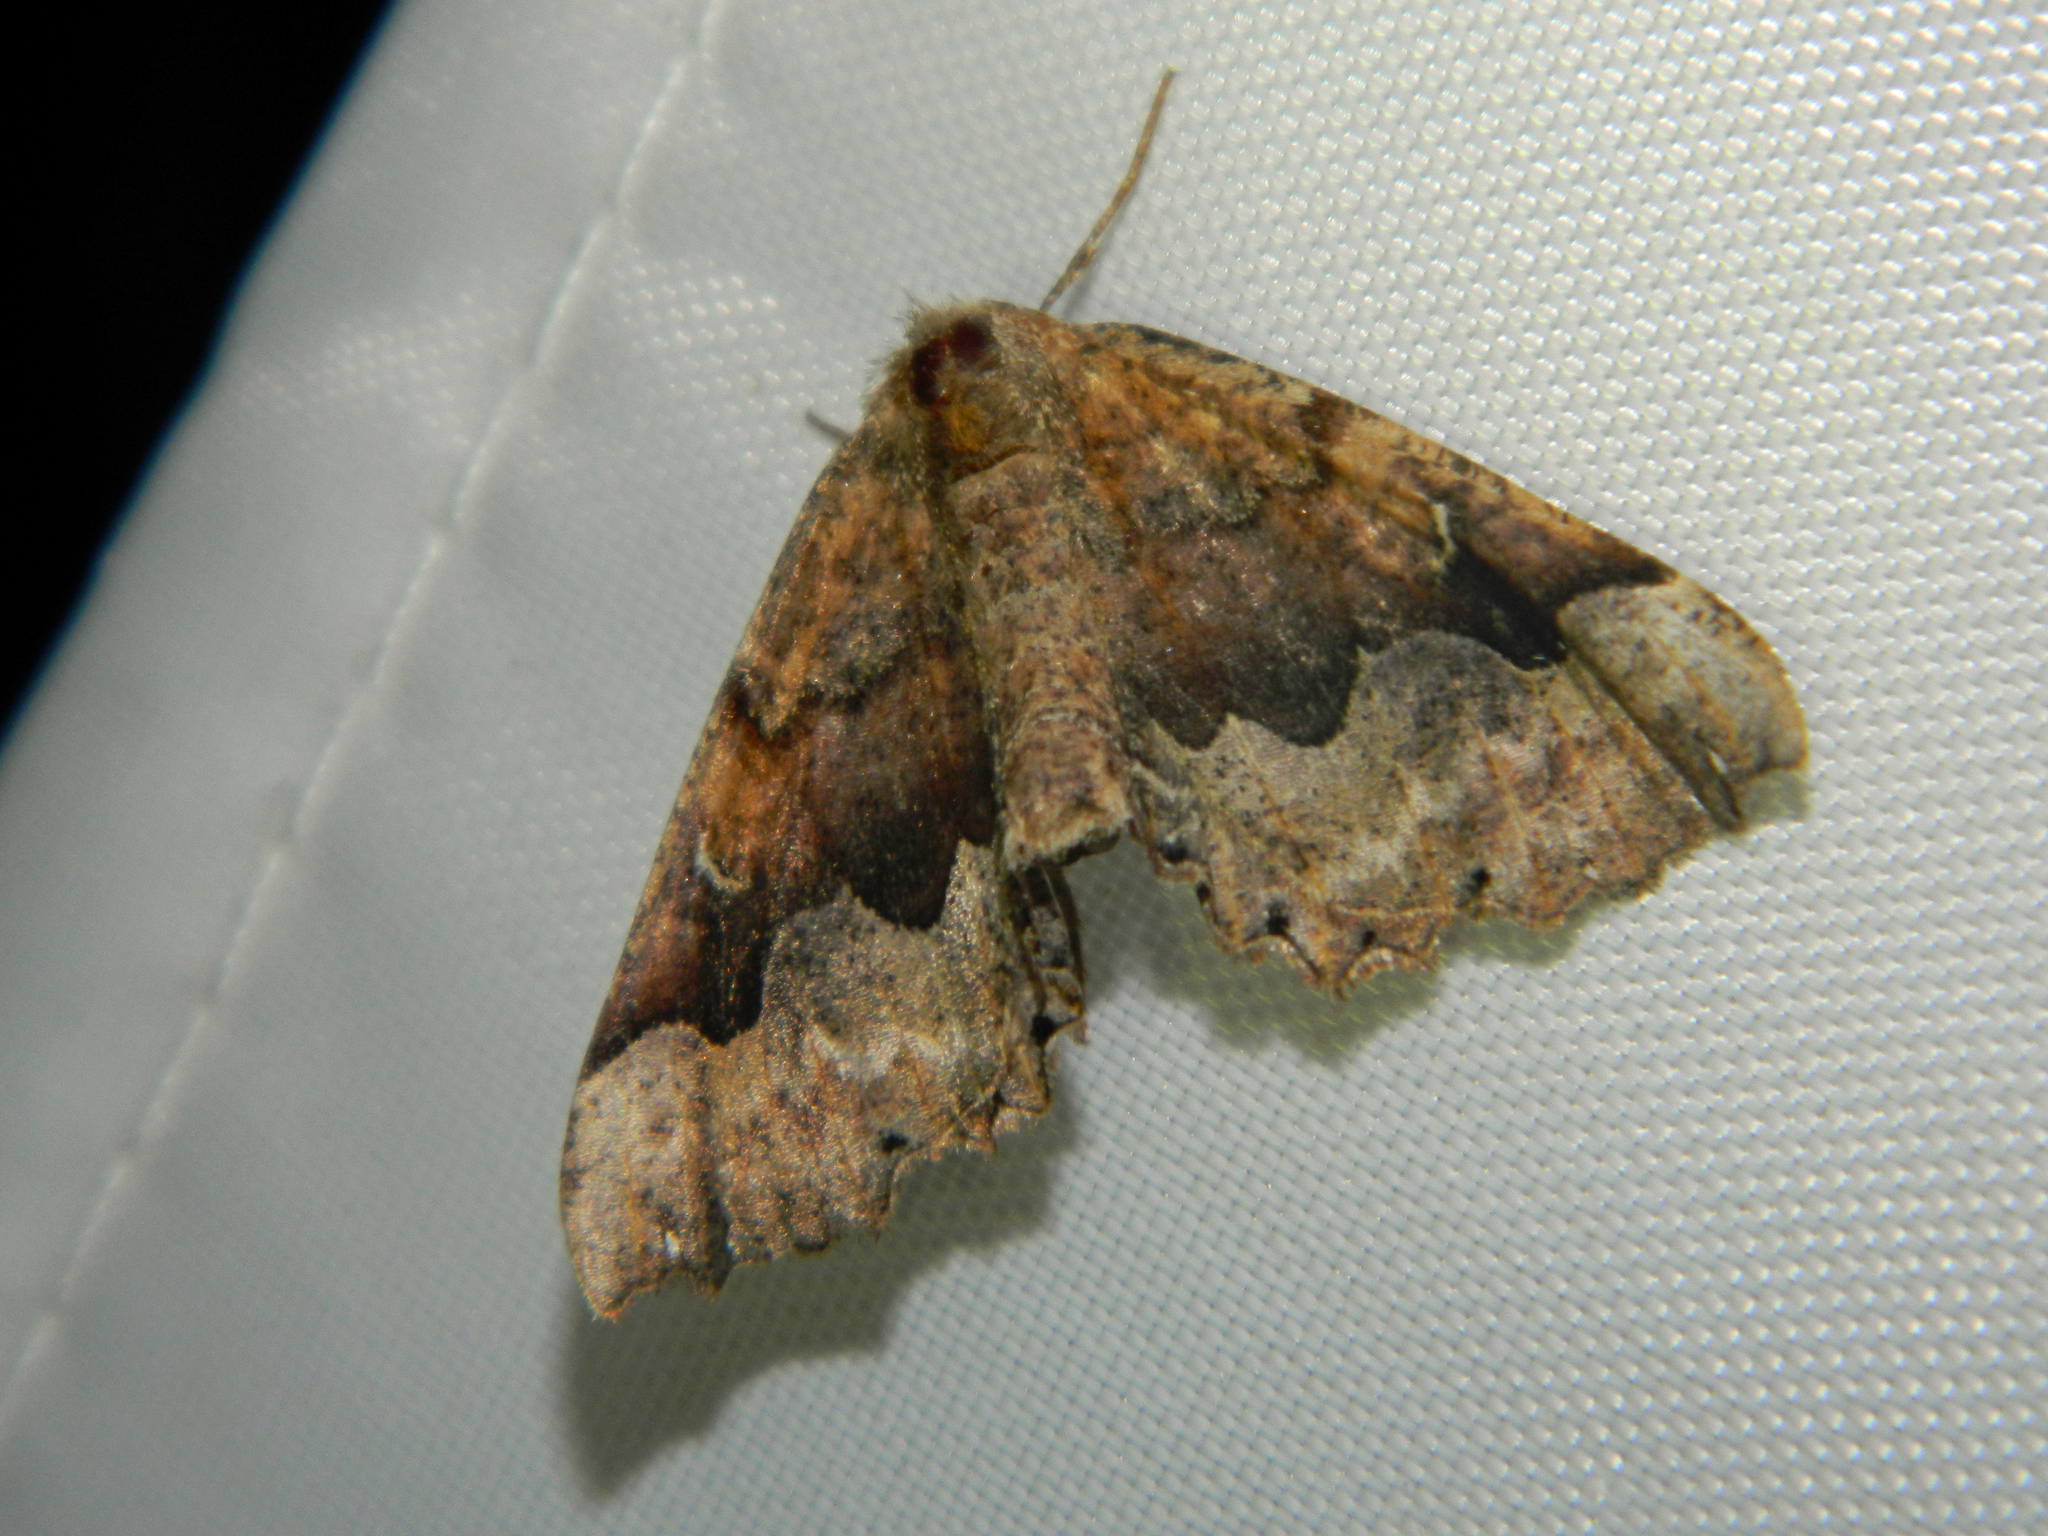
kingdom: Animalia
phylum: Arthropoda
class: Insecta
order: Lepidoptera
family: Geometridae
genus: Pero
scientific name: Pero morrisonaria
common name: Morrison's pero
